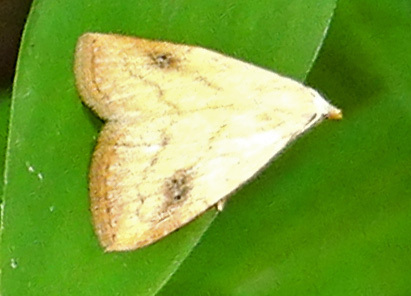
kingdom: Animalia
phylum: Arthropoda
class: Insecta
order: Lepidoptera
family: Erebidae
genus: Rivula
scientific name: Rivula propinqualis
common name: Spotted grass moth
